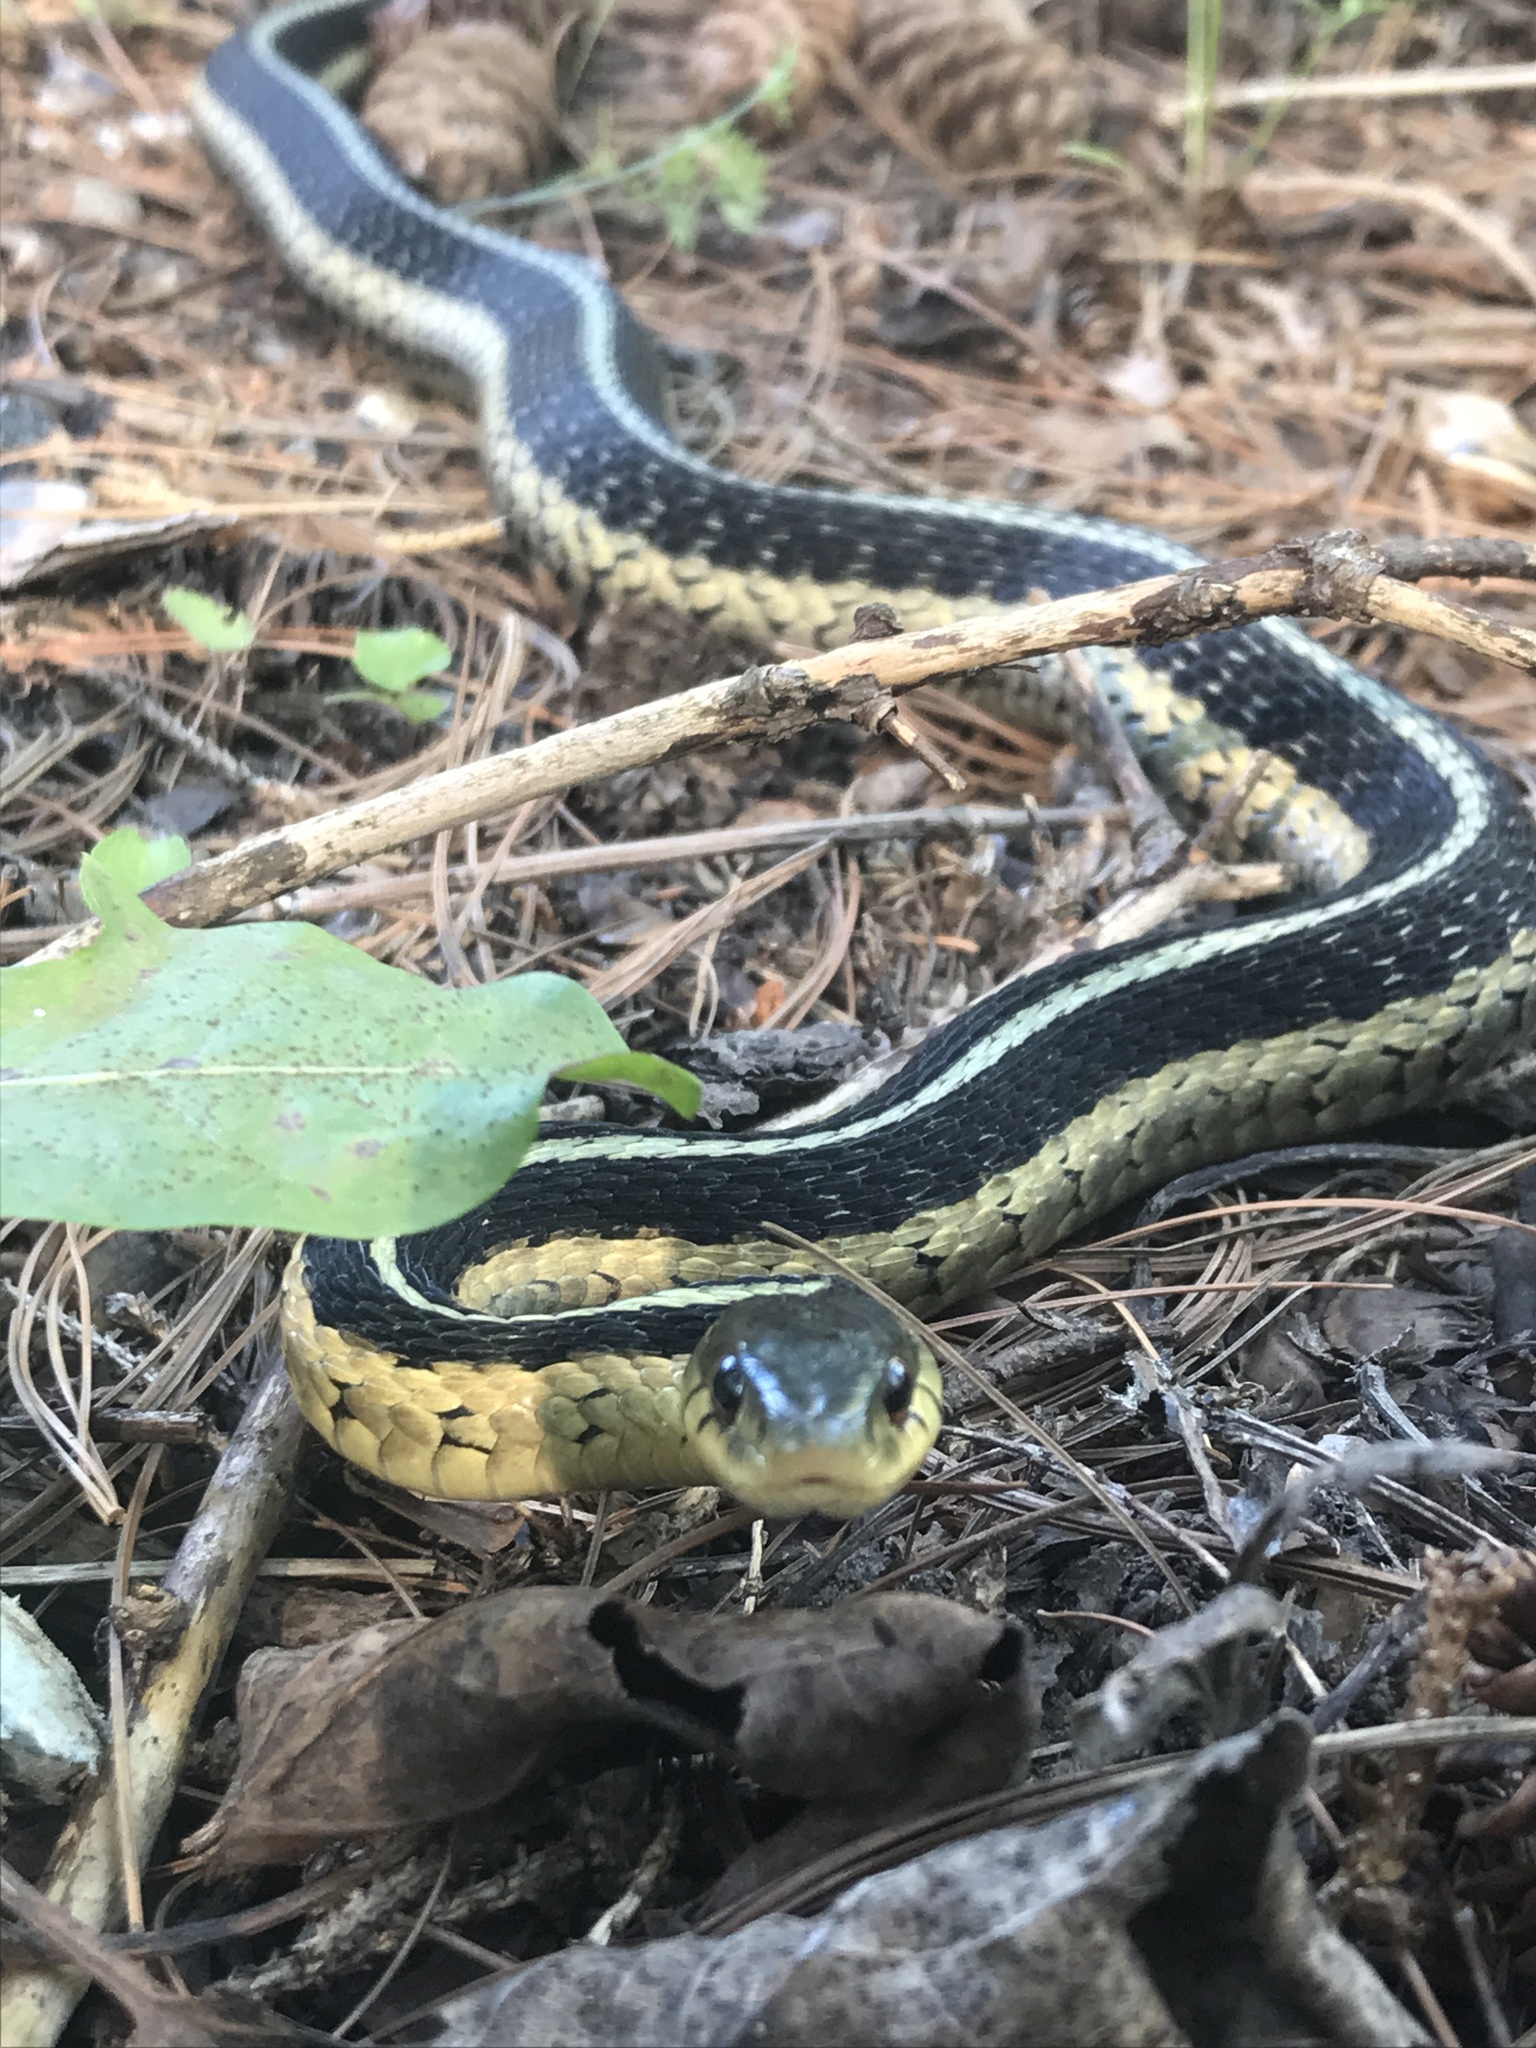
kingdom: Animalia
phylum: Chordata
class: Squamata
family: Colubridae
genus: Thamnophis
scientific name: Thamnophis sirtalis
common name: Common garter snake
